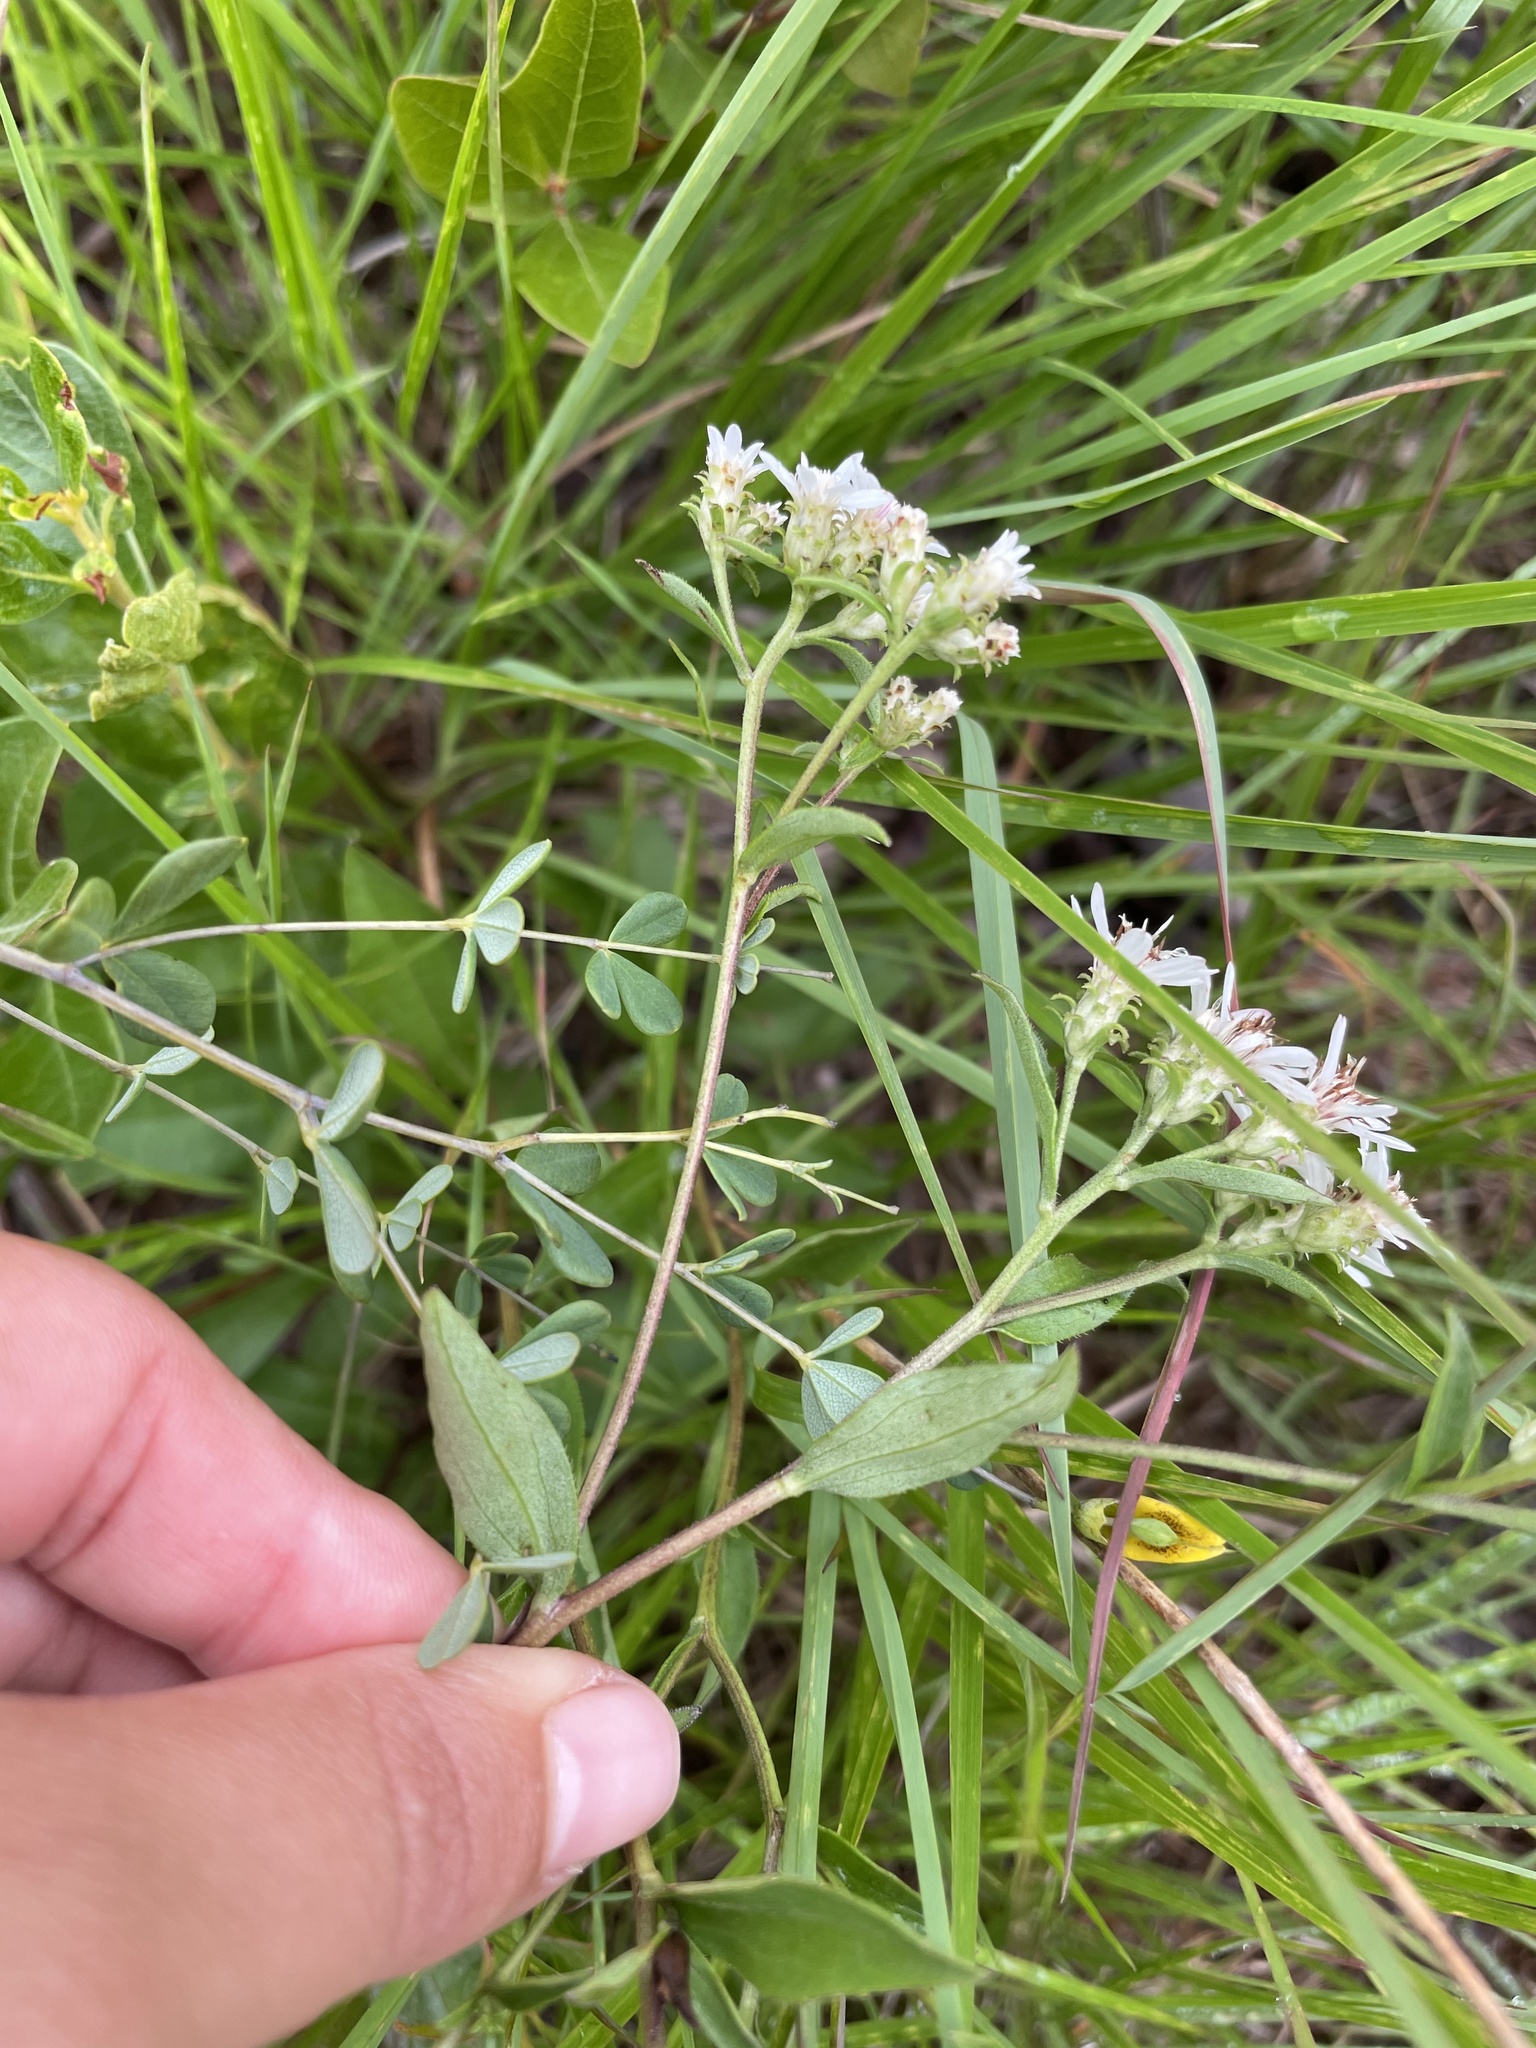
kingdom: Plantae
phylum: Tracheophyta
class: Magnoliopsida
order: Asterales
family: Asteraceae
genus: Sericocarpus
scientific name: Sericocarpus asteroides
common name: Toothed white-top aster
